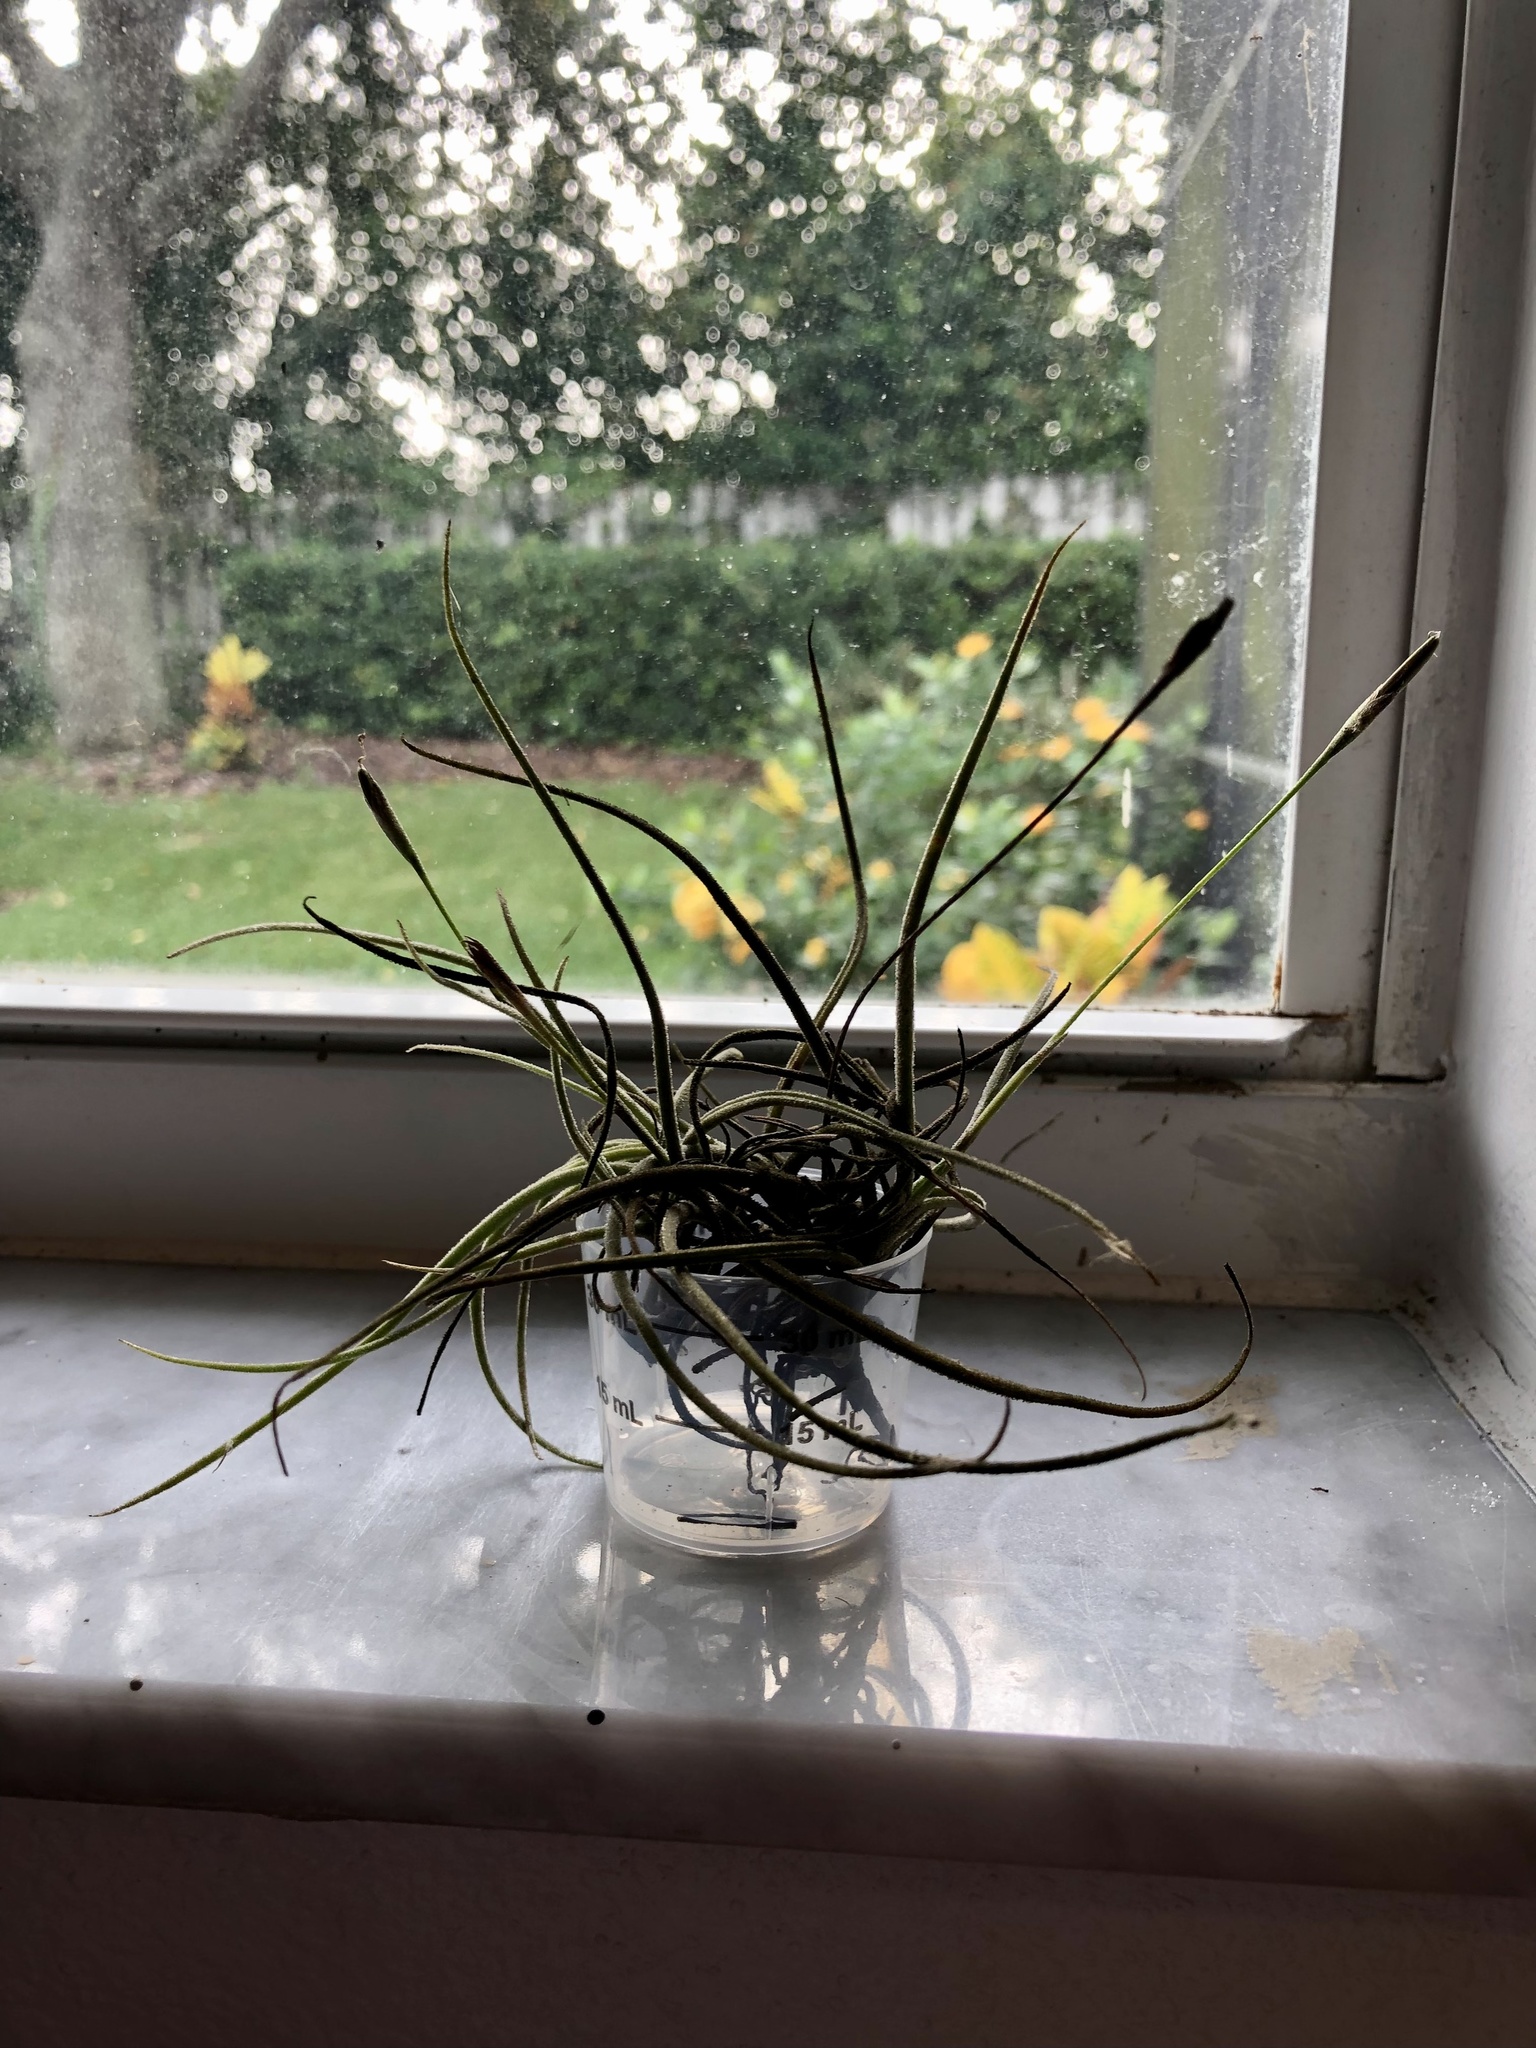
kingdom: Plantae
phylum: Tracheophyta
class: Liliopsida
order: Poales
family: Bromeliaceae
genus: Tillandsia
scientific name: Tillandsia recurvata
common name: Small ballmoss
